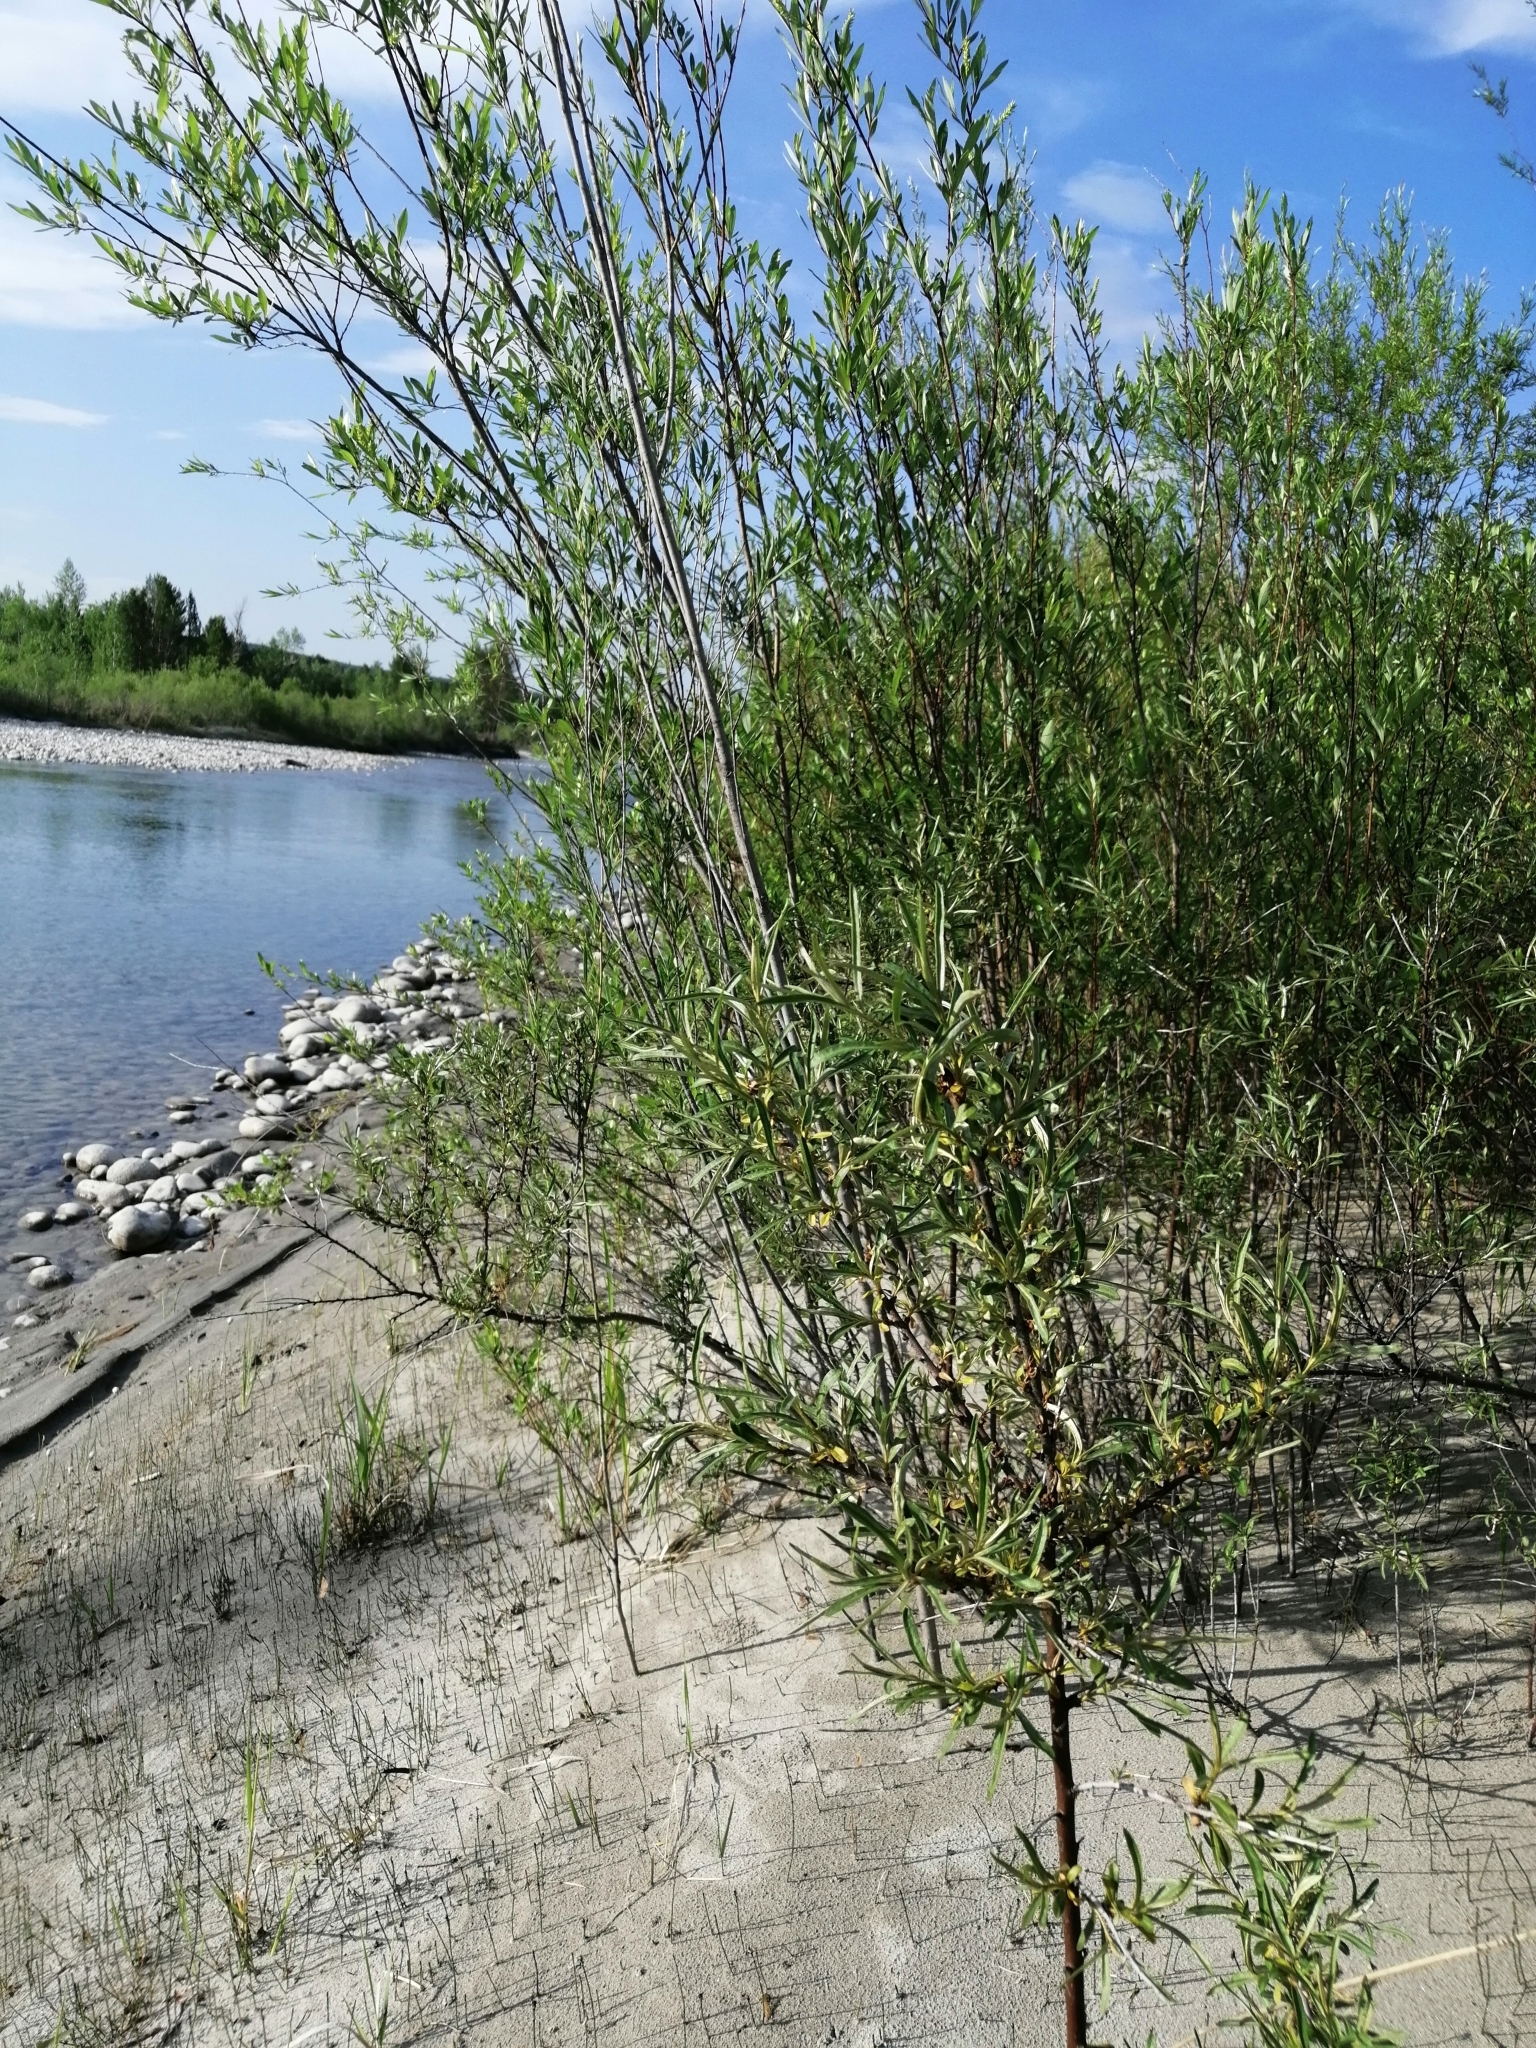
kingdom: Plantae
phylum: Tracheophyta
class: Magnoliopsida
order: Rosales
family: Elaeagnaceae
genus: Hippophae
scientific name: Hippophae rhamnoides
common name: Sea-buckthorn
